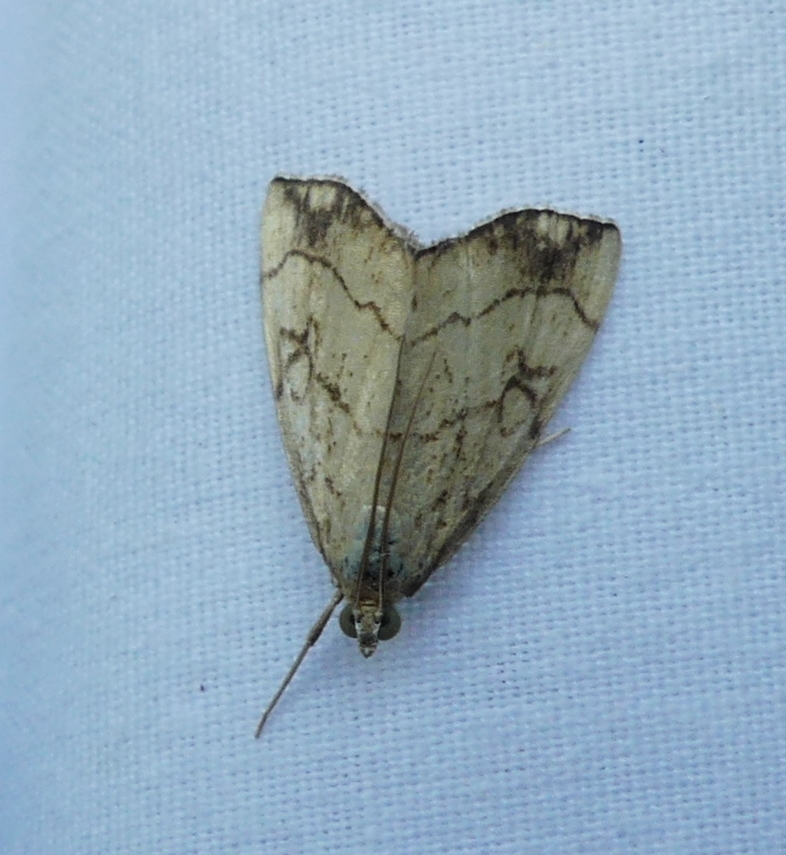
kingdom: Animalia
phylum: Arthropoda
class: Insecta
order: Lepidoptera
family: Crambidae
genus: Evergestis
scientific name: Evergestis pallidata
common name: Chequered pearl
